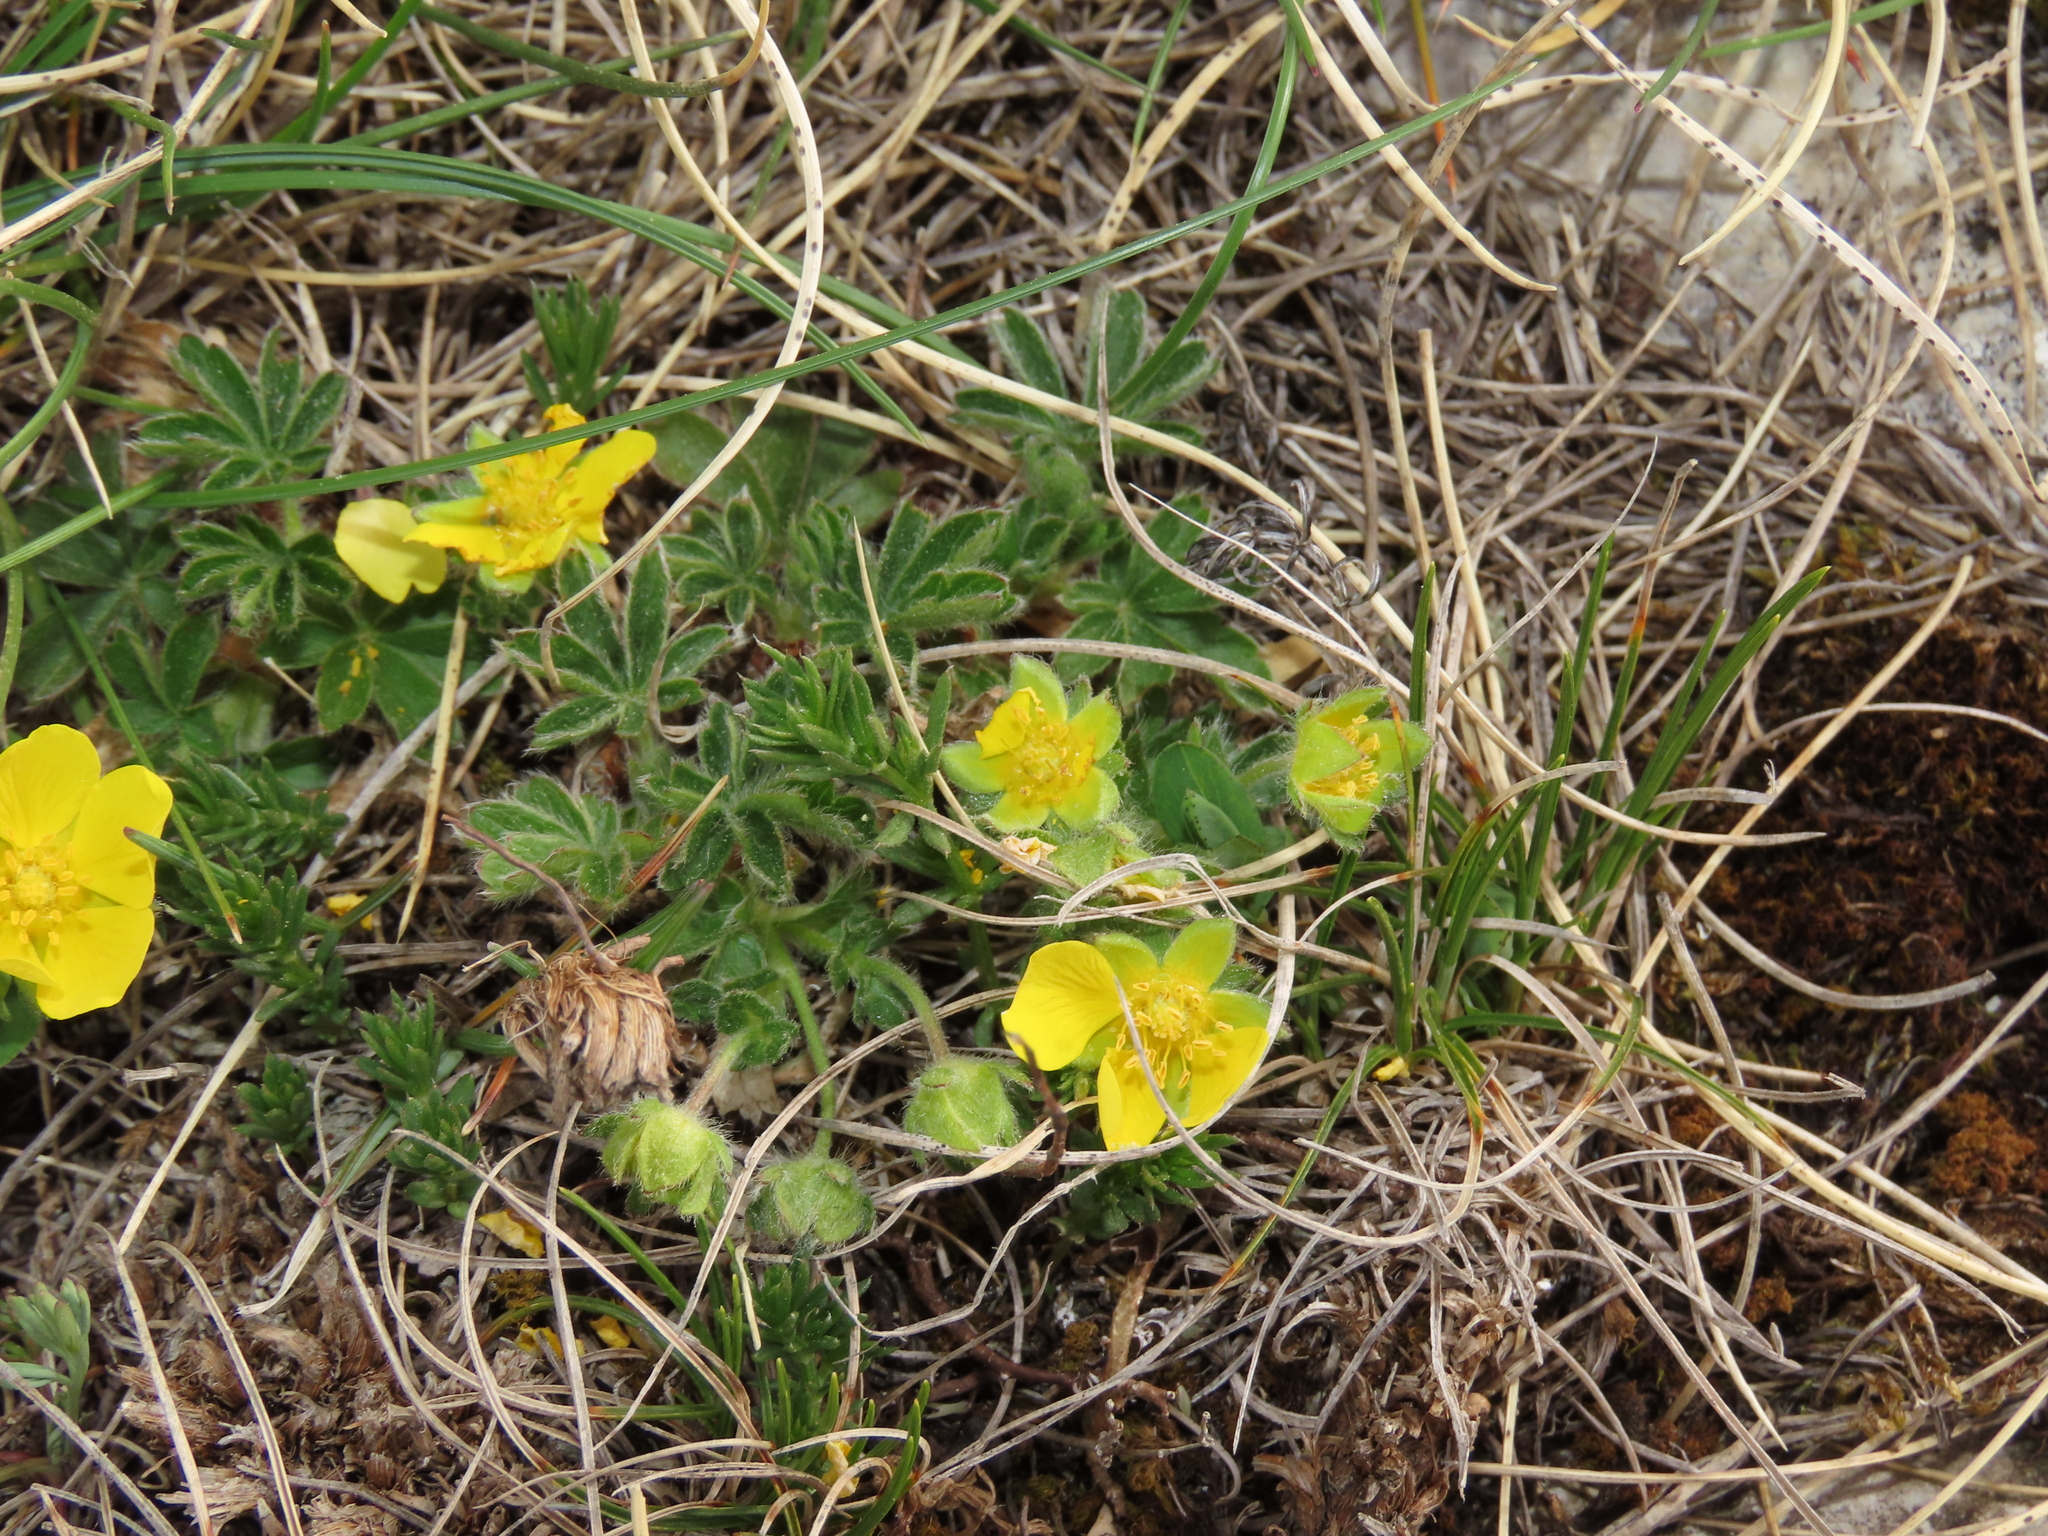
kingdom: Plantae
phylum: Tracheophyta
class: Magnoliopsida
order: Rosales
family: Rosaceae
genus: Potentilla
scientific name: Potentilla rigoana
